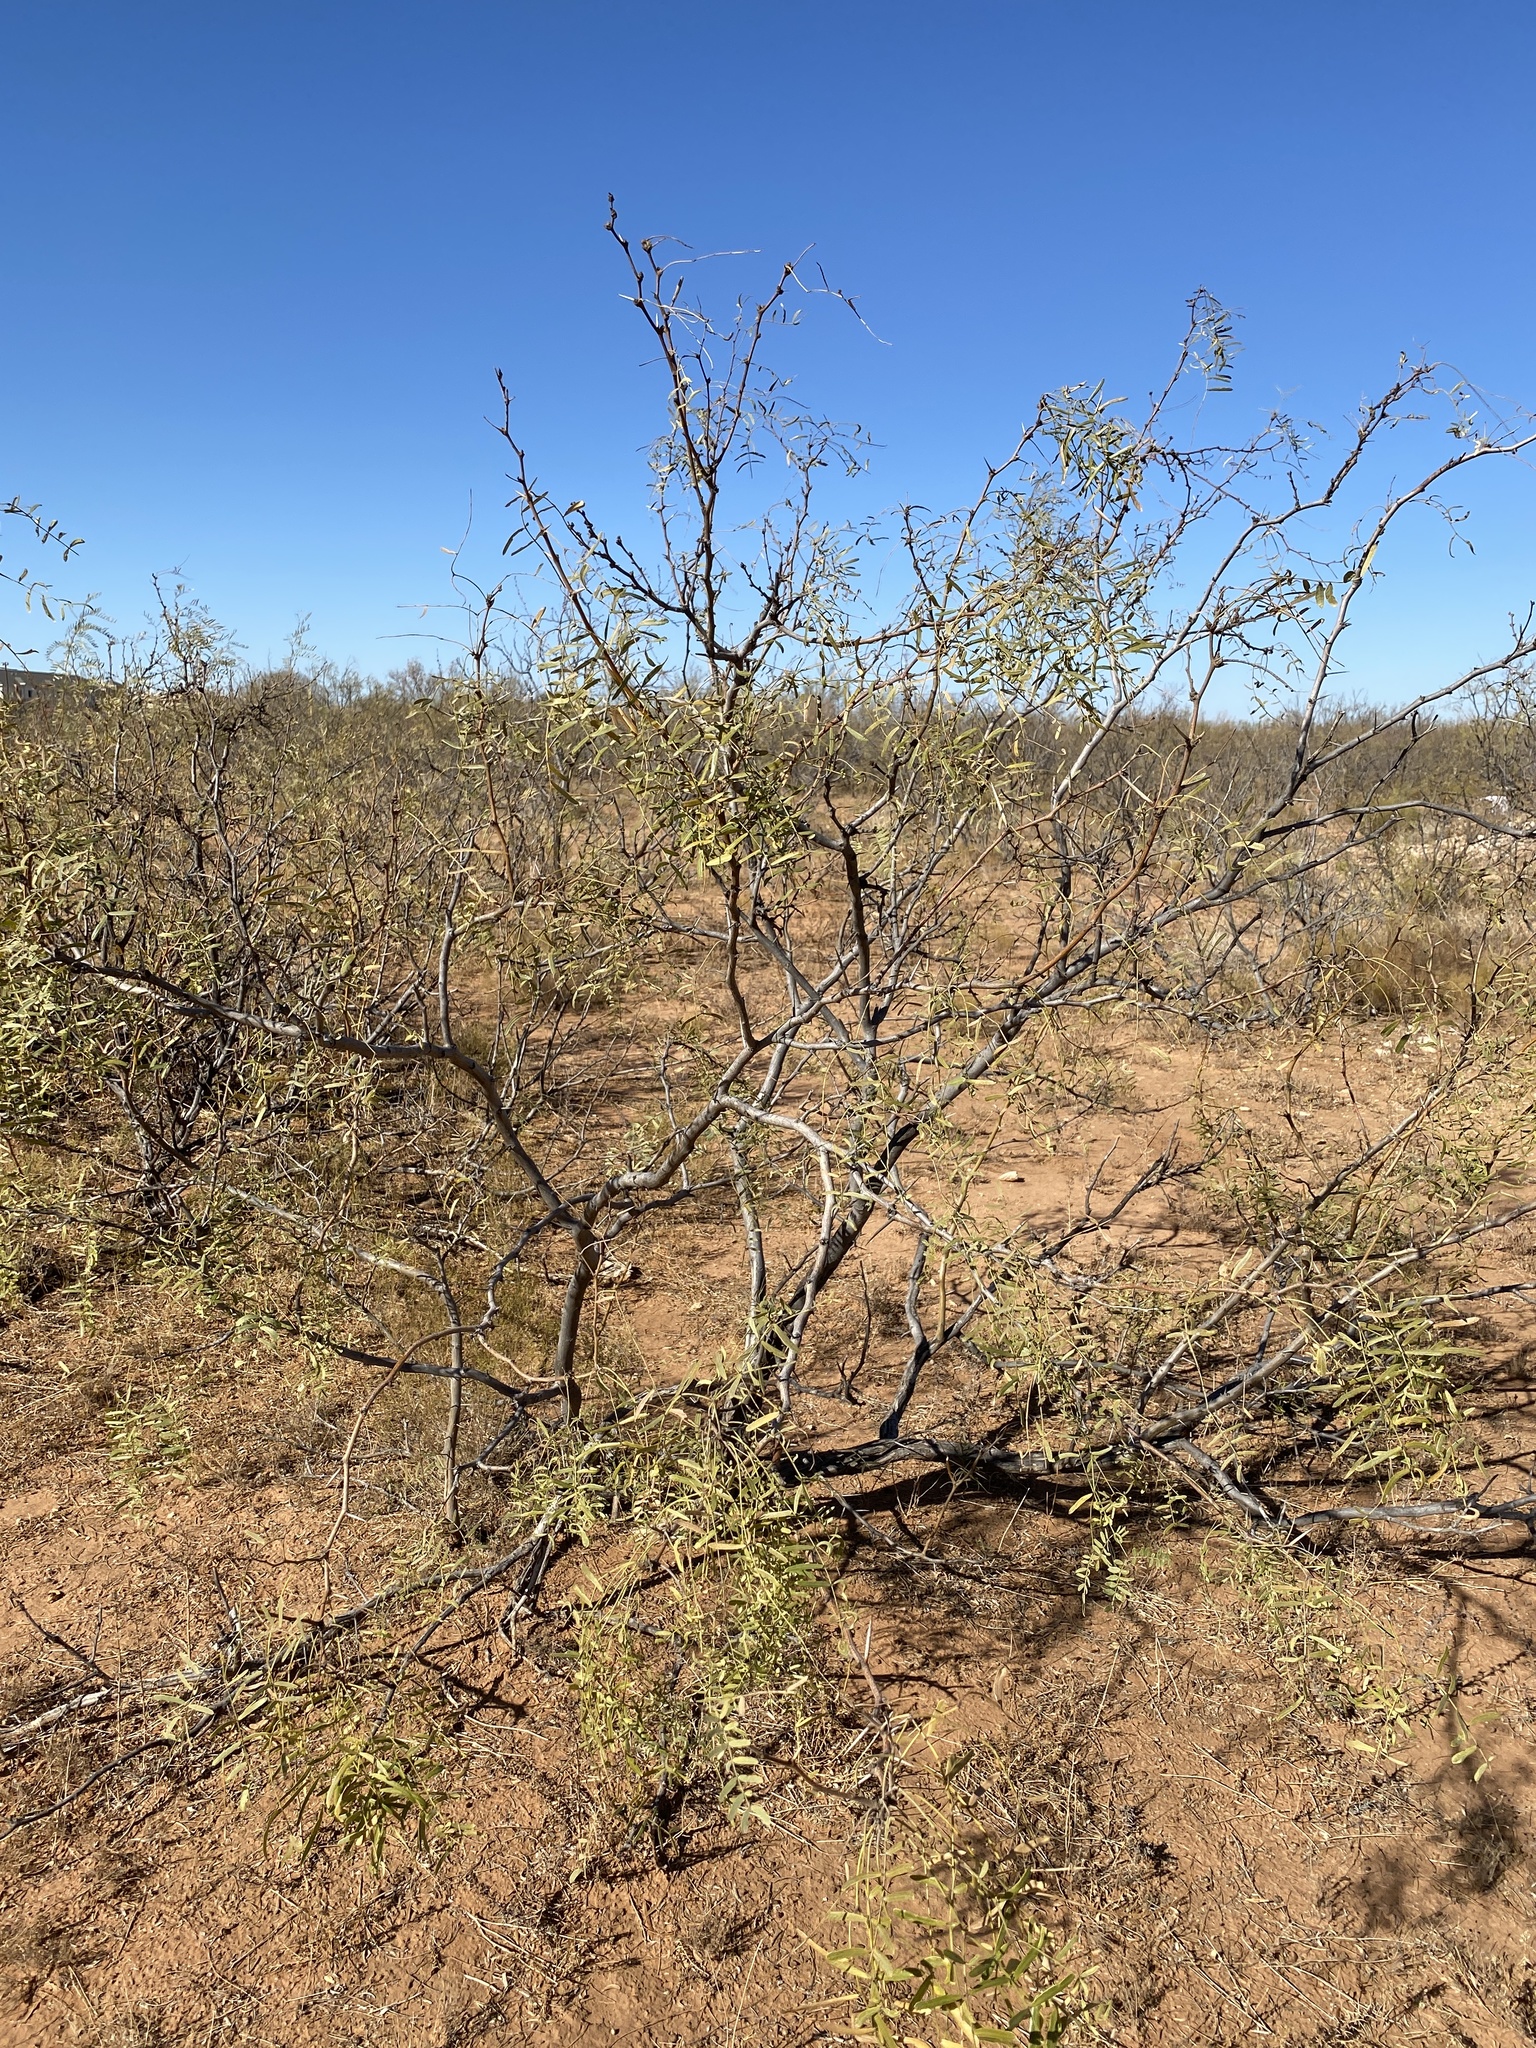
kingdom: Plantae
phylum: Tracheophyta
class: Magnoliopsida
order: Fabales
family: Fabaceae
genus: Prosopis
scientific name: Prosopis glandulosa
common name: Honey mesquite
